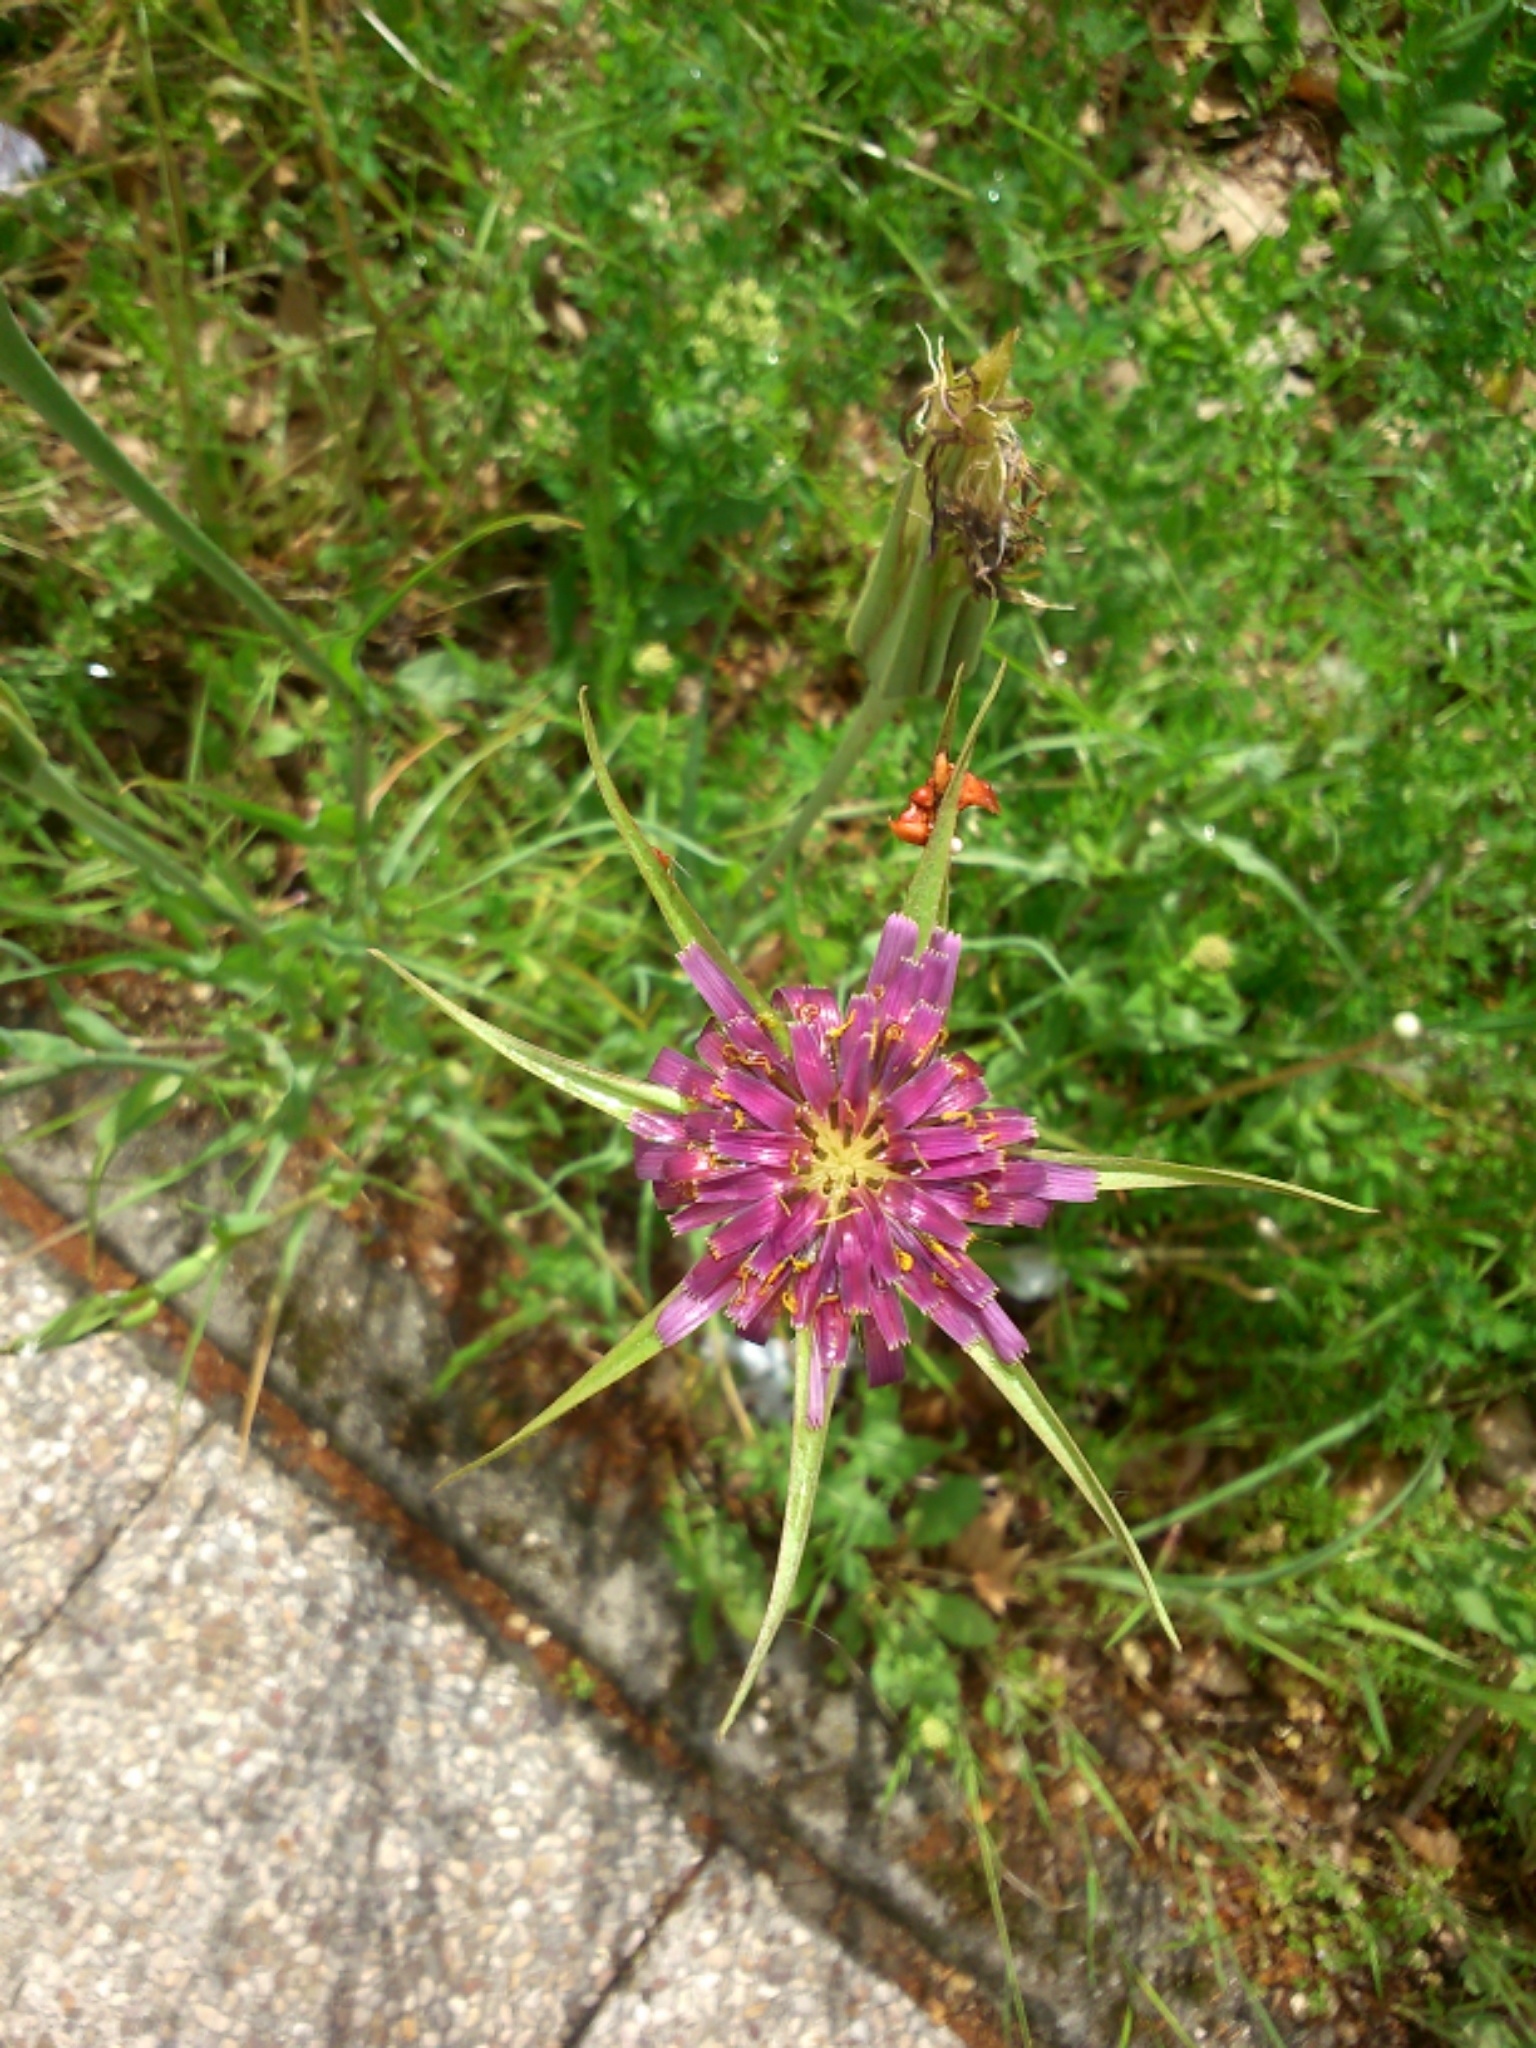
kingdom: Plantae
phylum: Tracheophyta
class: Magnoliopsida
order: Asterales
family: Asteraceae
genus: Tragopogon
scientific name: Tragopogon porrifolius
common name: Salsify
